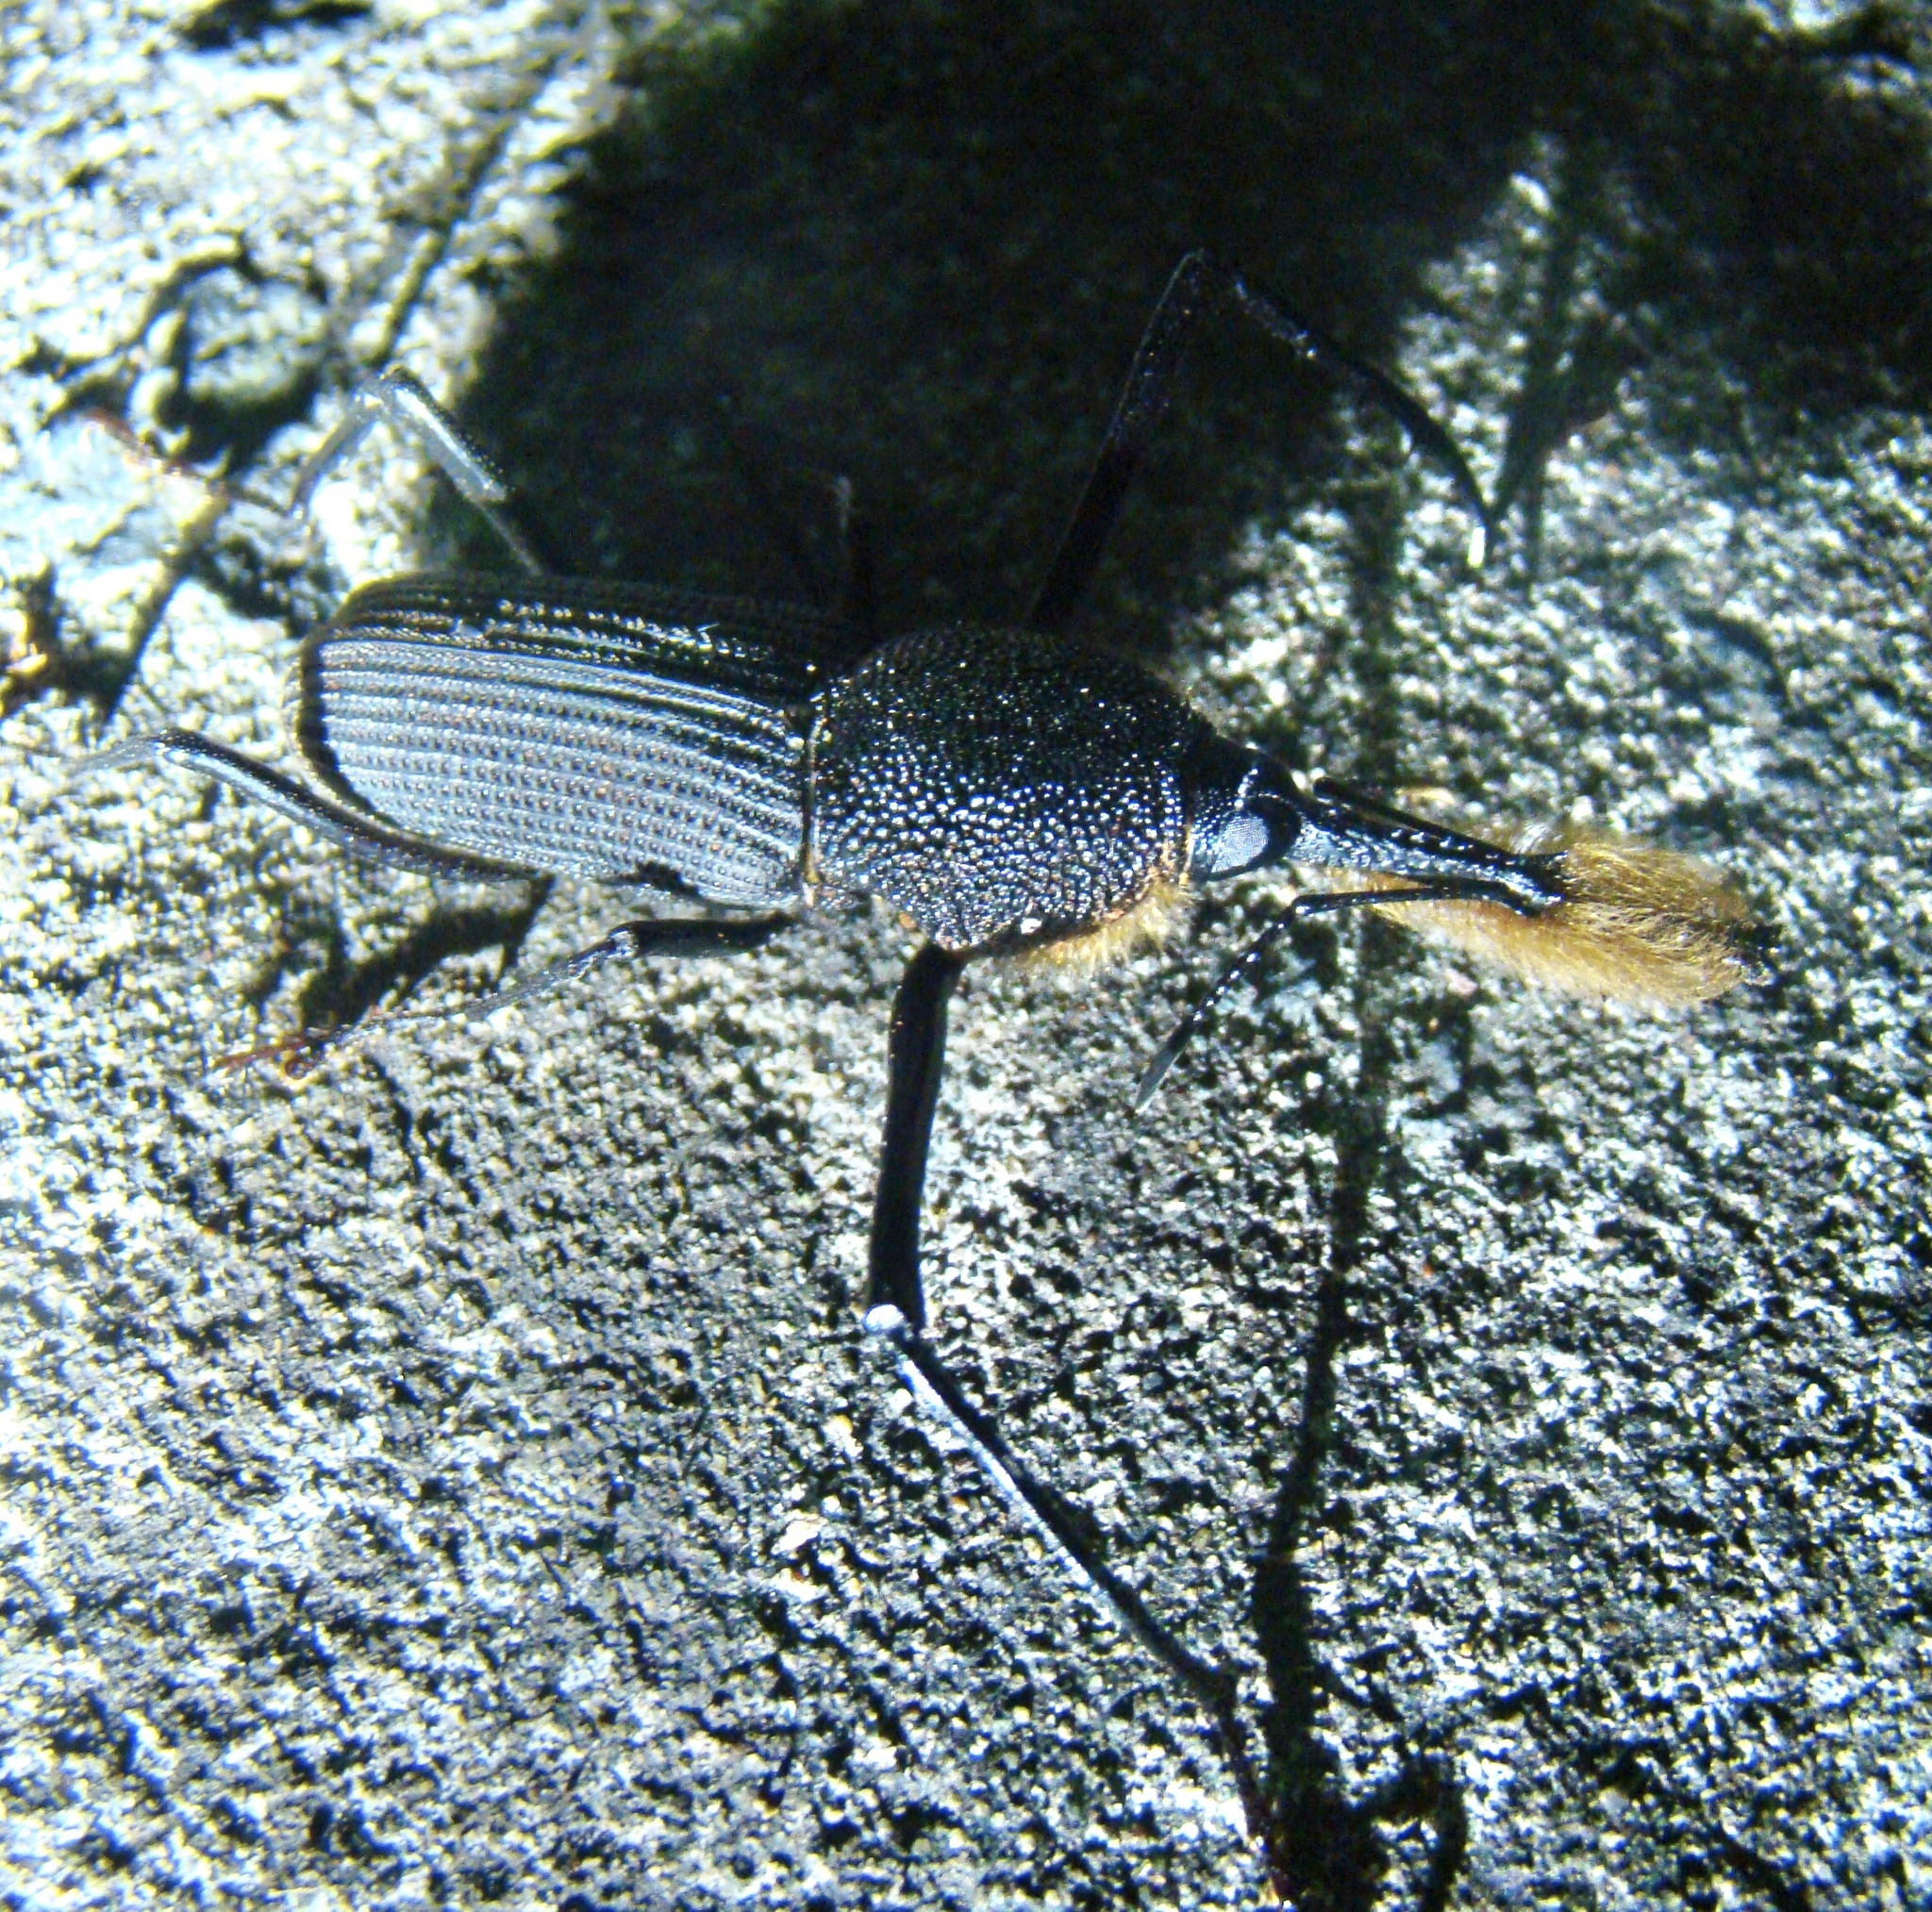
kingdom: Animalia
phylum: Arthropoda
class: Insecta
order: Coleoptera
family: Dryophthoridae
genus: Rhinostomus
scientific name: Rhinostomus barbirostris
